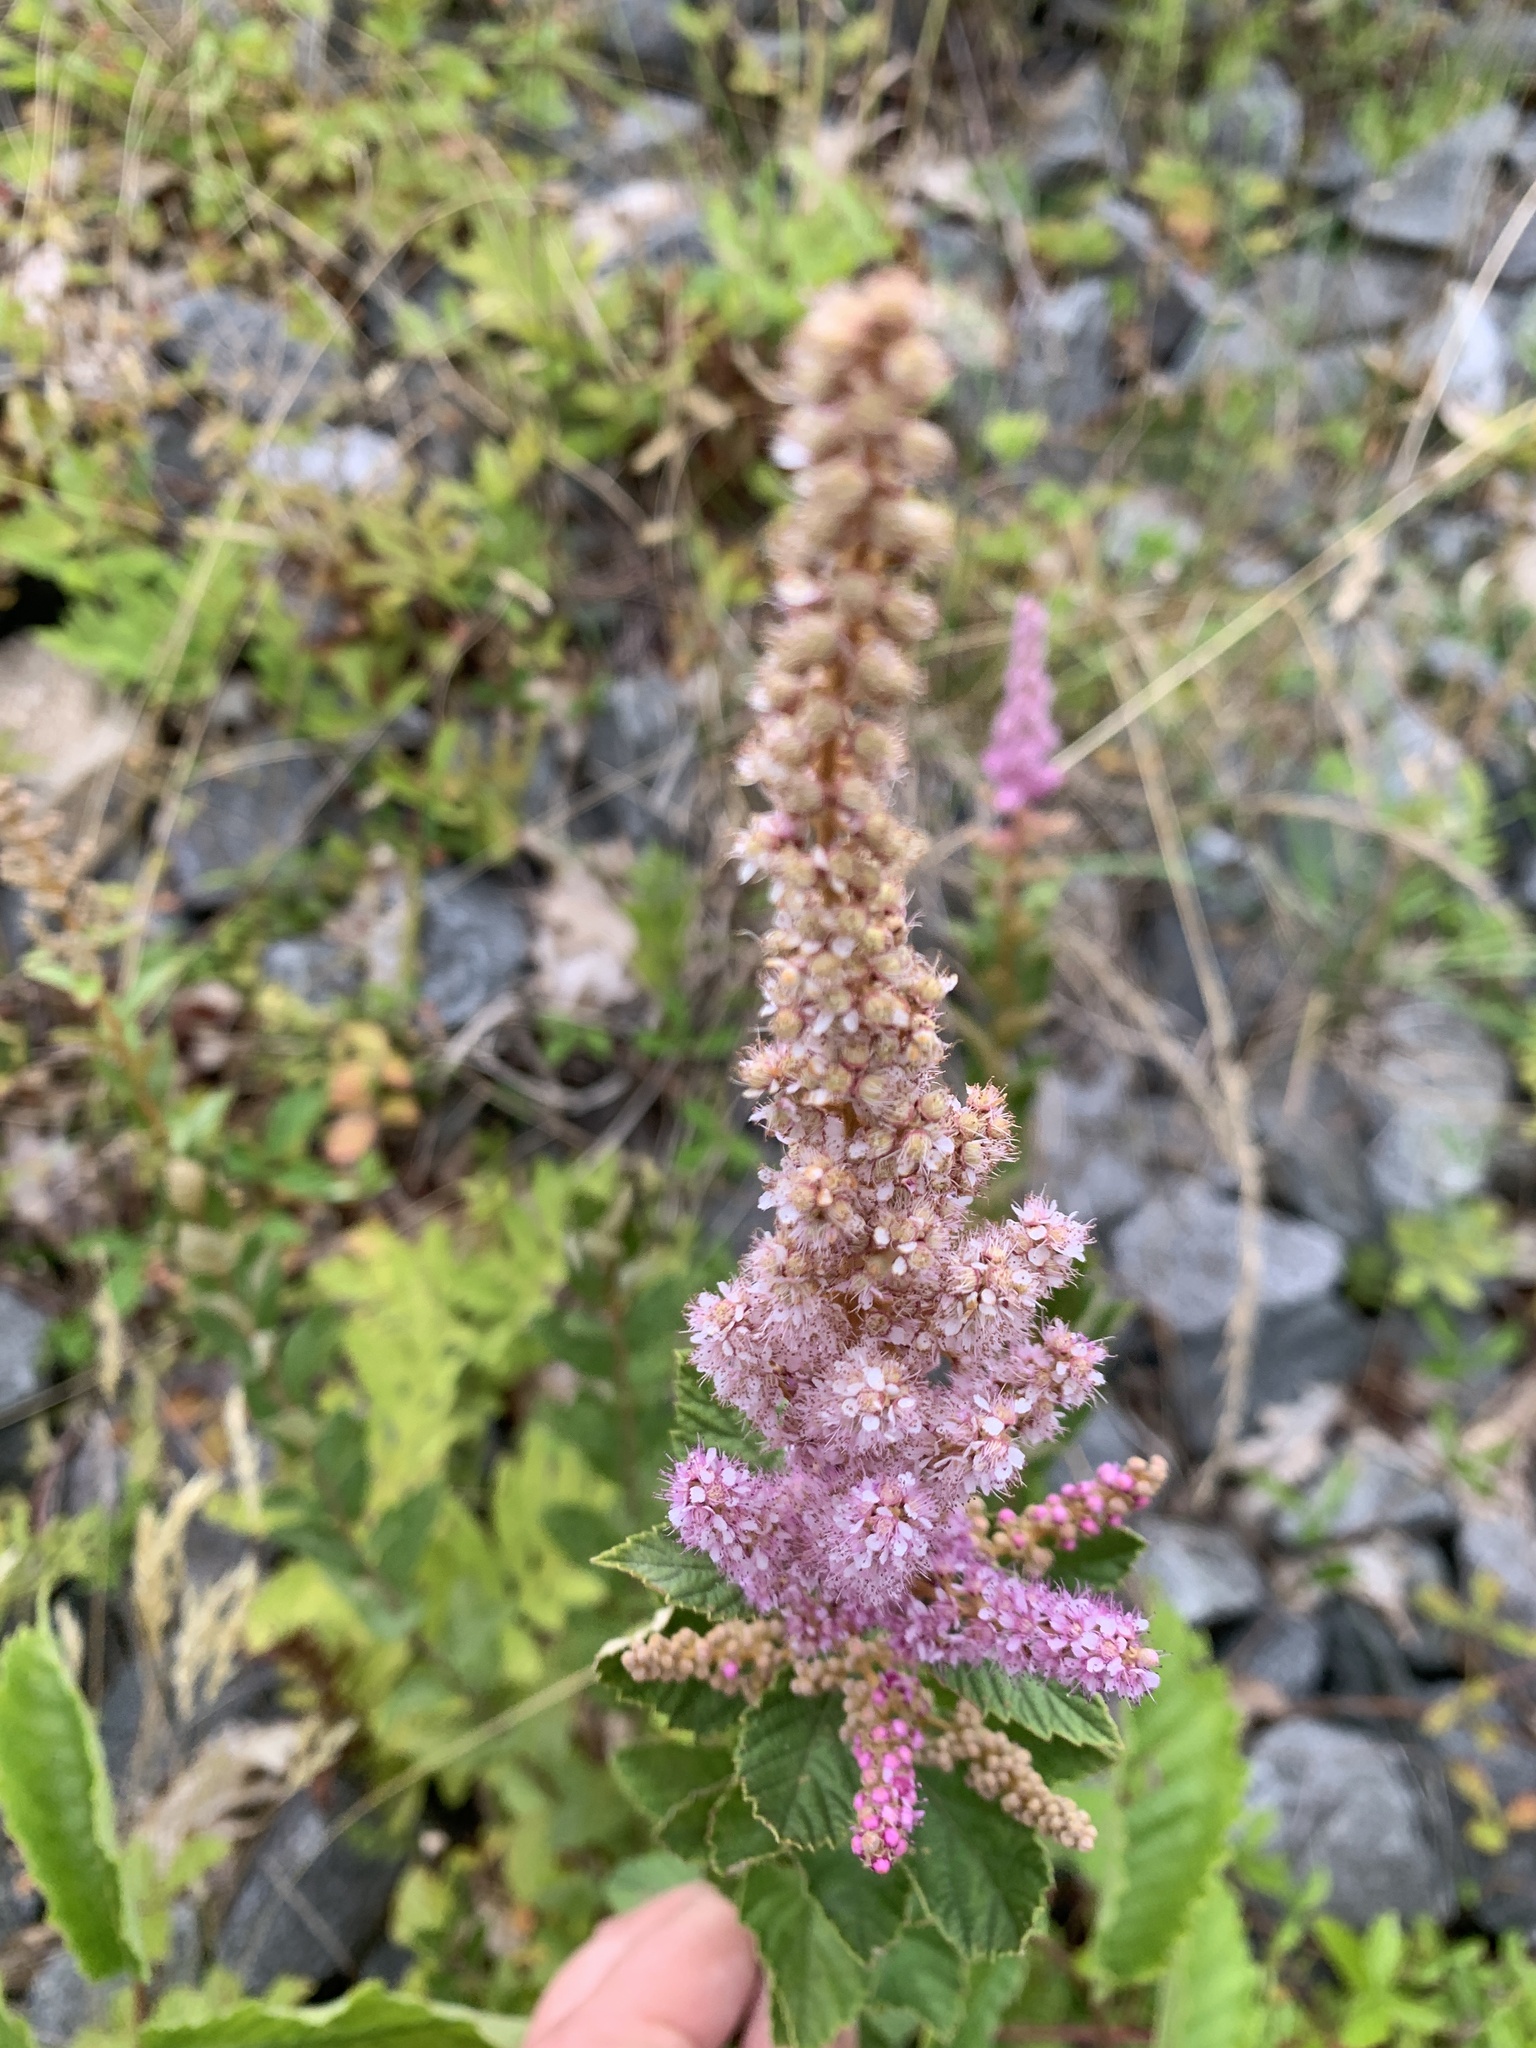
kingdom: Plantae
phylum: Tracheophyta
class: Magnoliopsida
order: Rosales
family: Rosaceae
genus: Spiraea
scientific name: Spiraea tomentosa
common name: Hardhack
